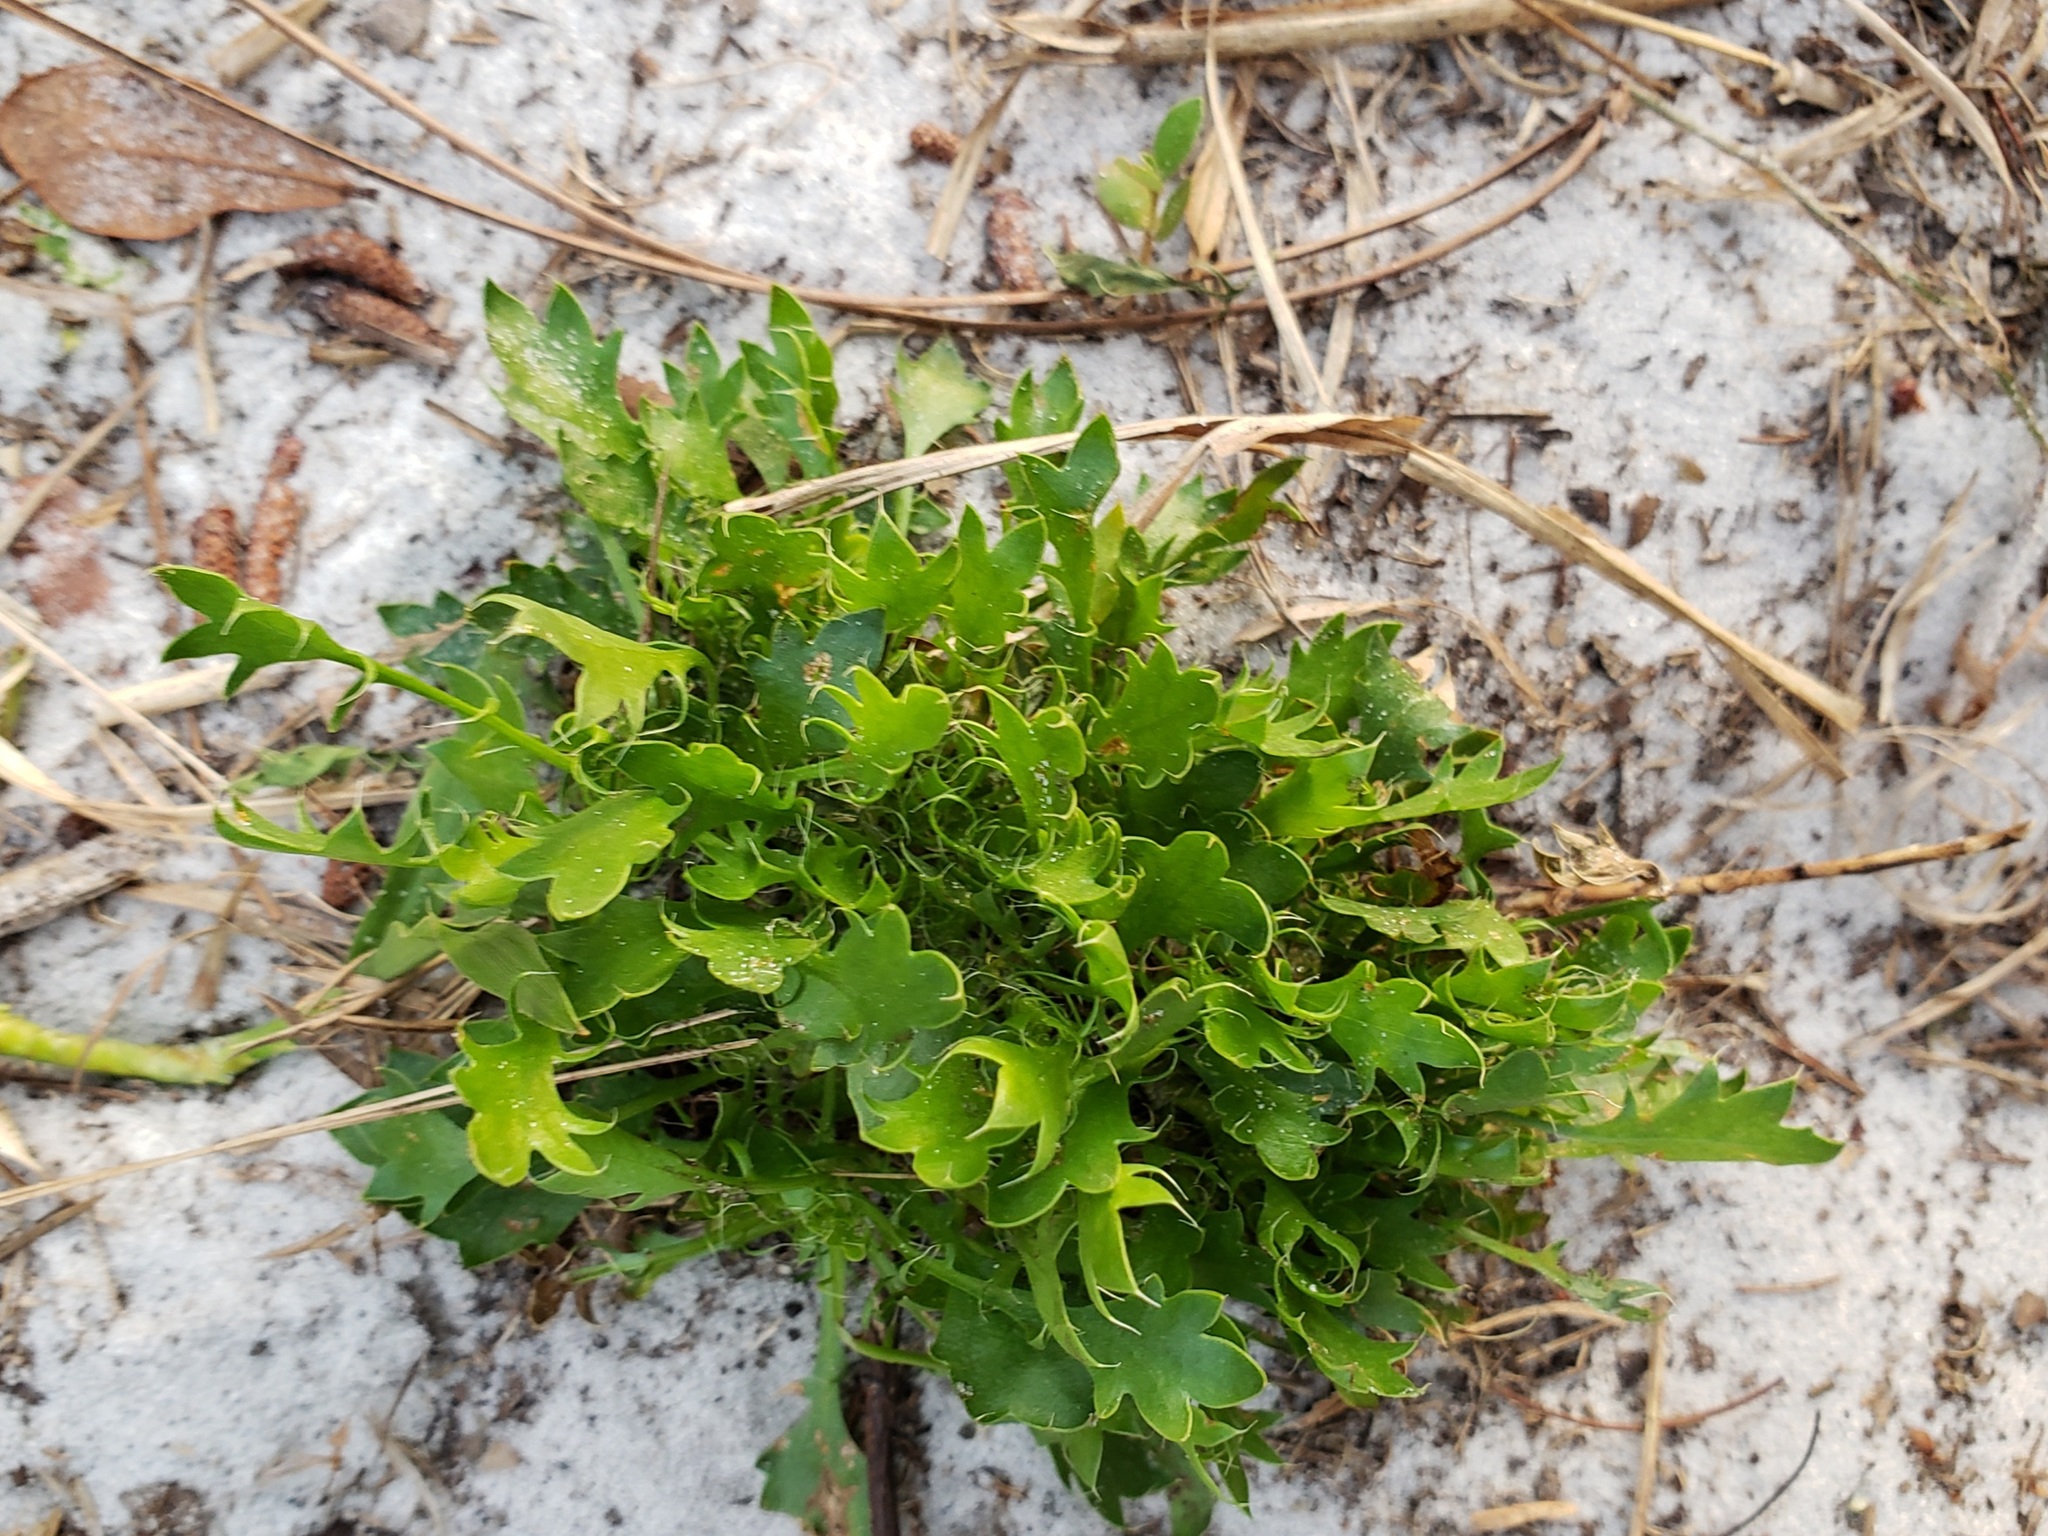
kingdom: Plantae
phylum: Tracheophyta
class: Magnoliopsida
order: Apiales
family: Apiaceae
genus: Eryngium
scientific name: Eryngium aromaticum
